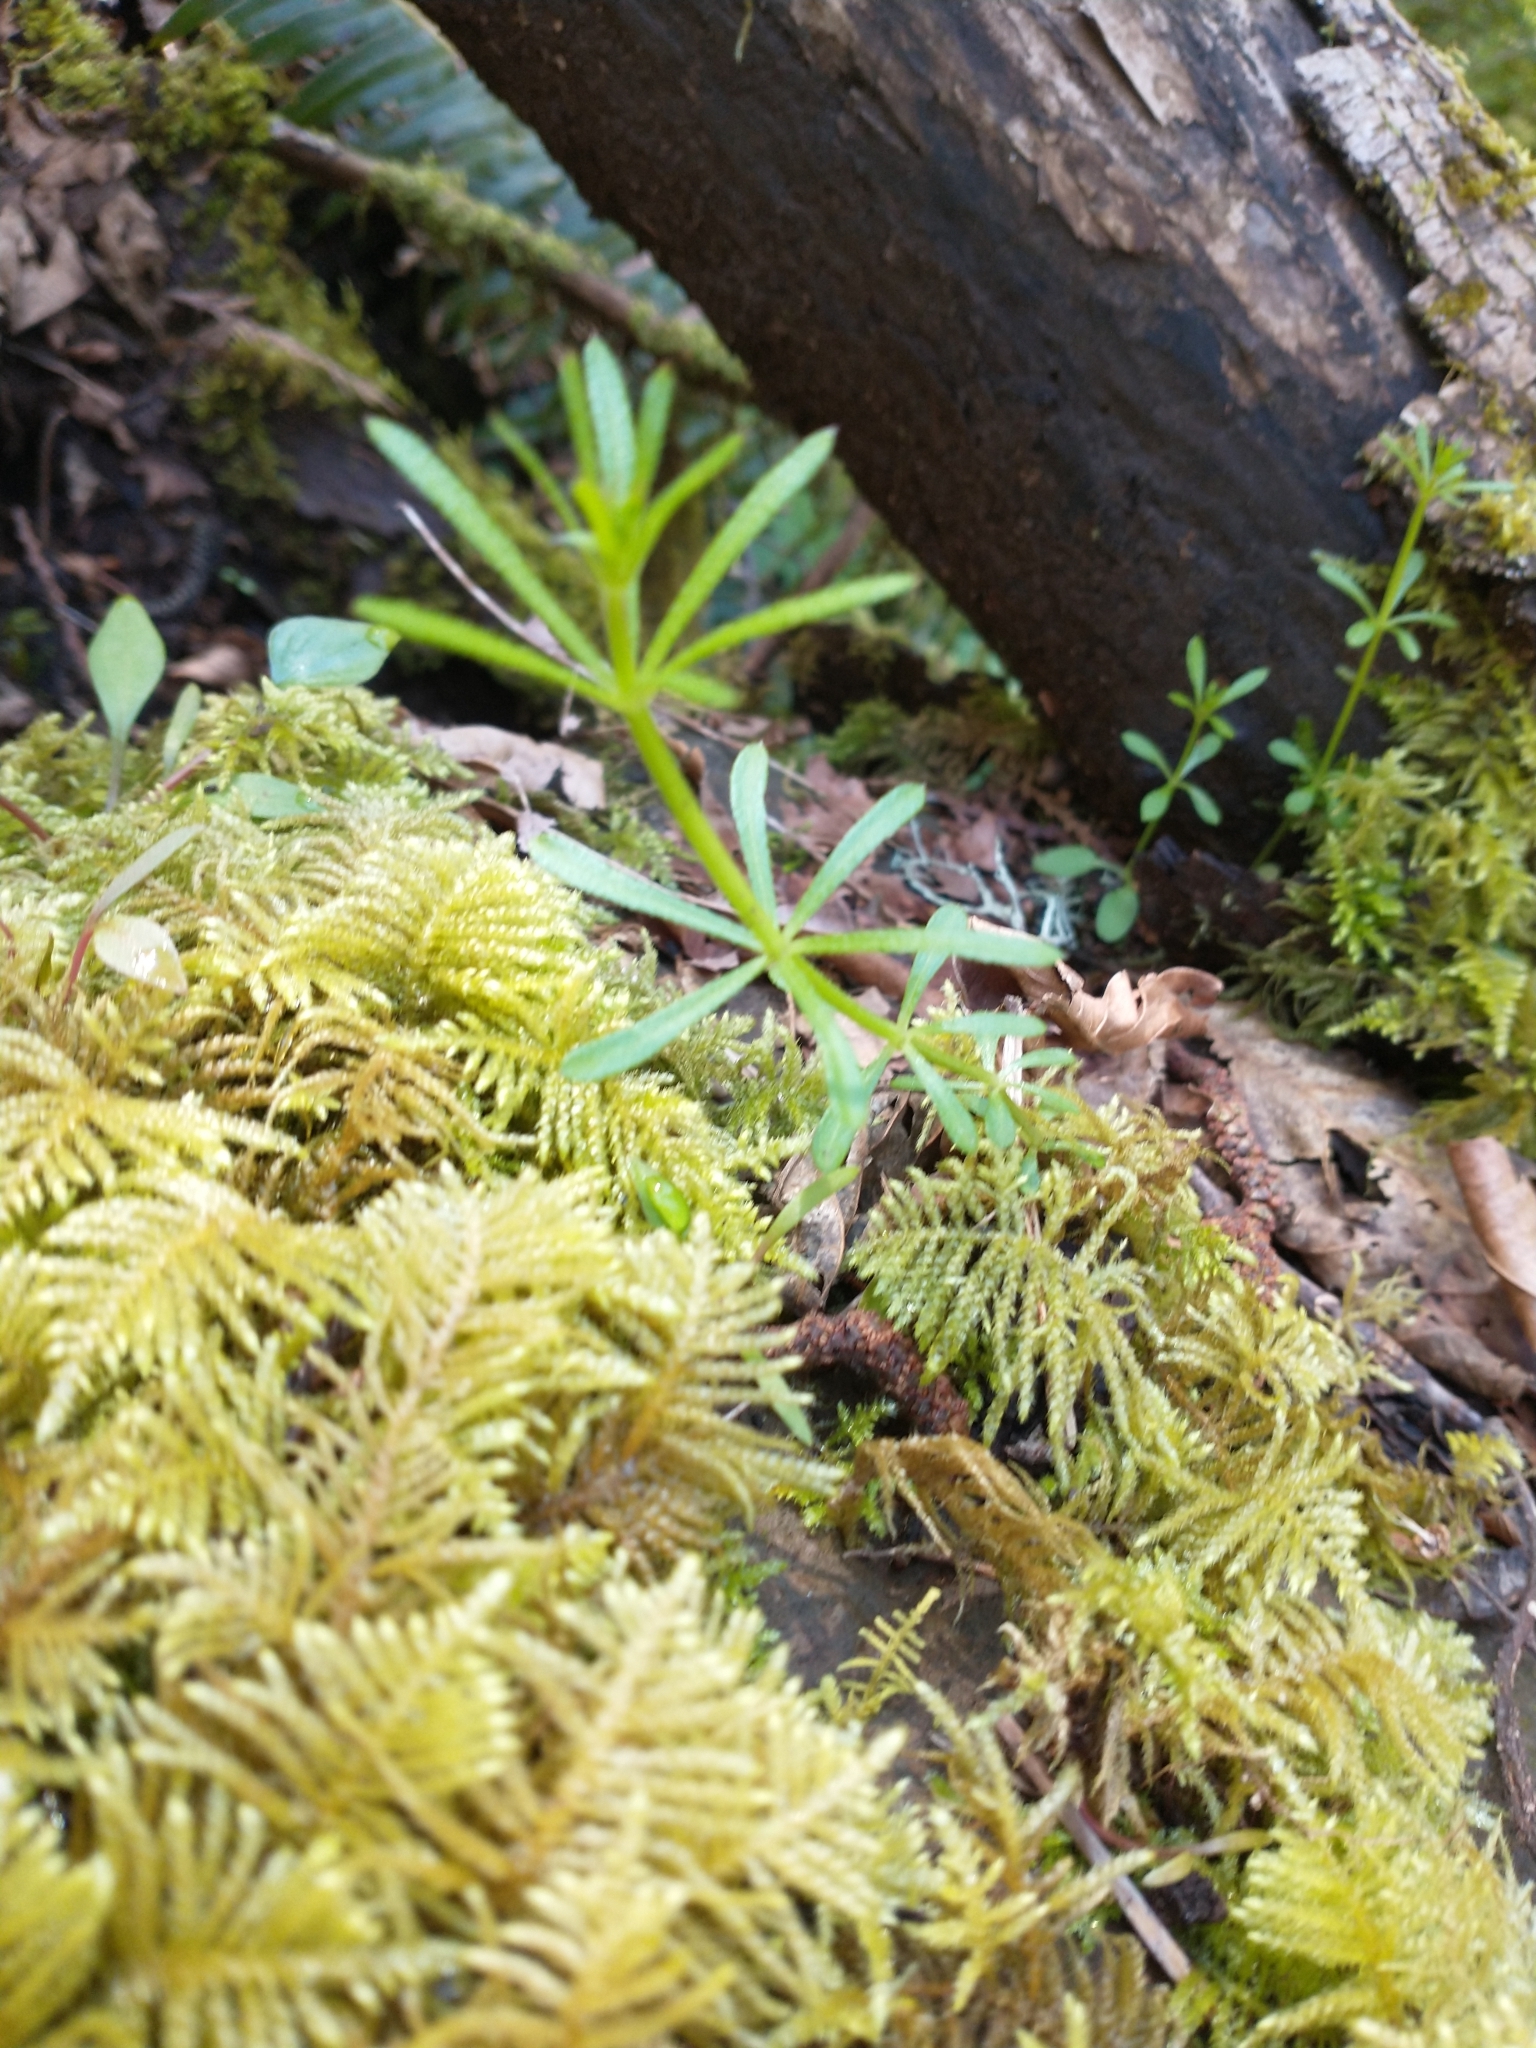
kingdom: Plantae
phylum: Tracheophyta
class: Magnoliopsida
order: Gentianales
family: Rubiaceae
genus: Galium
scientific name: Galium aparine
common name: Cleavers
